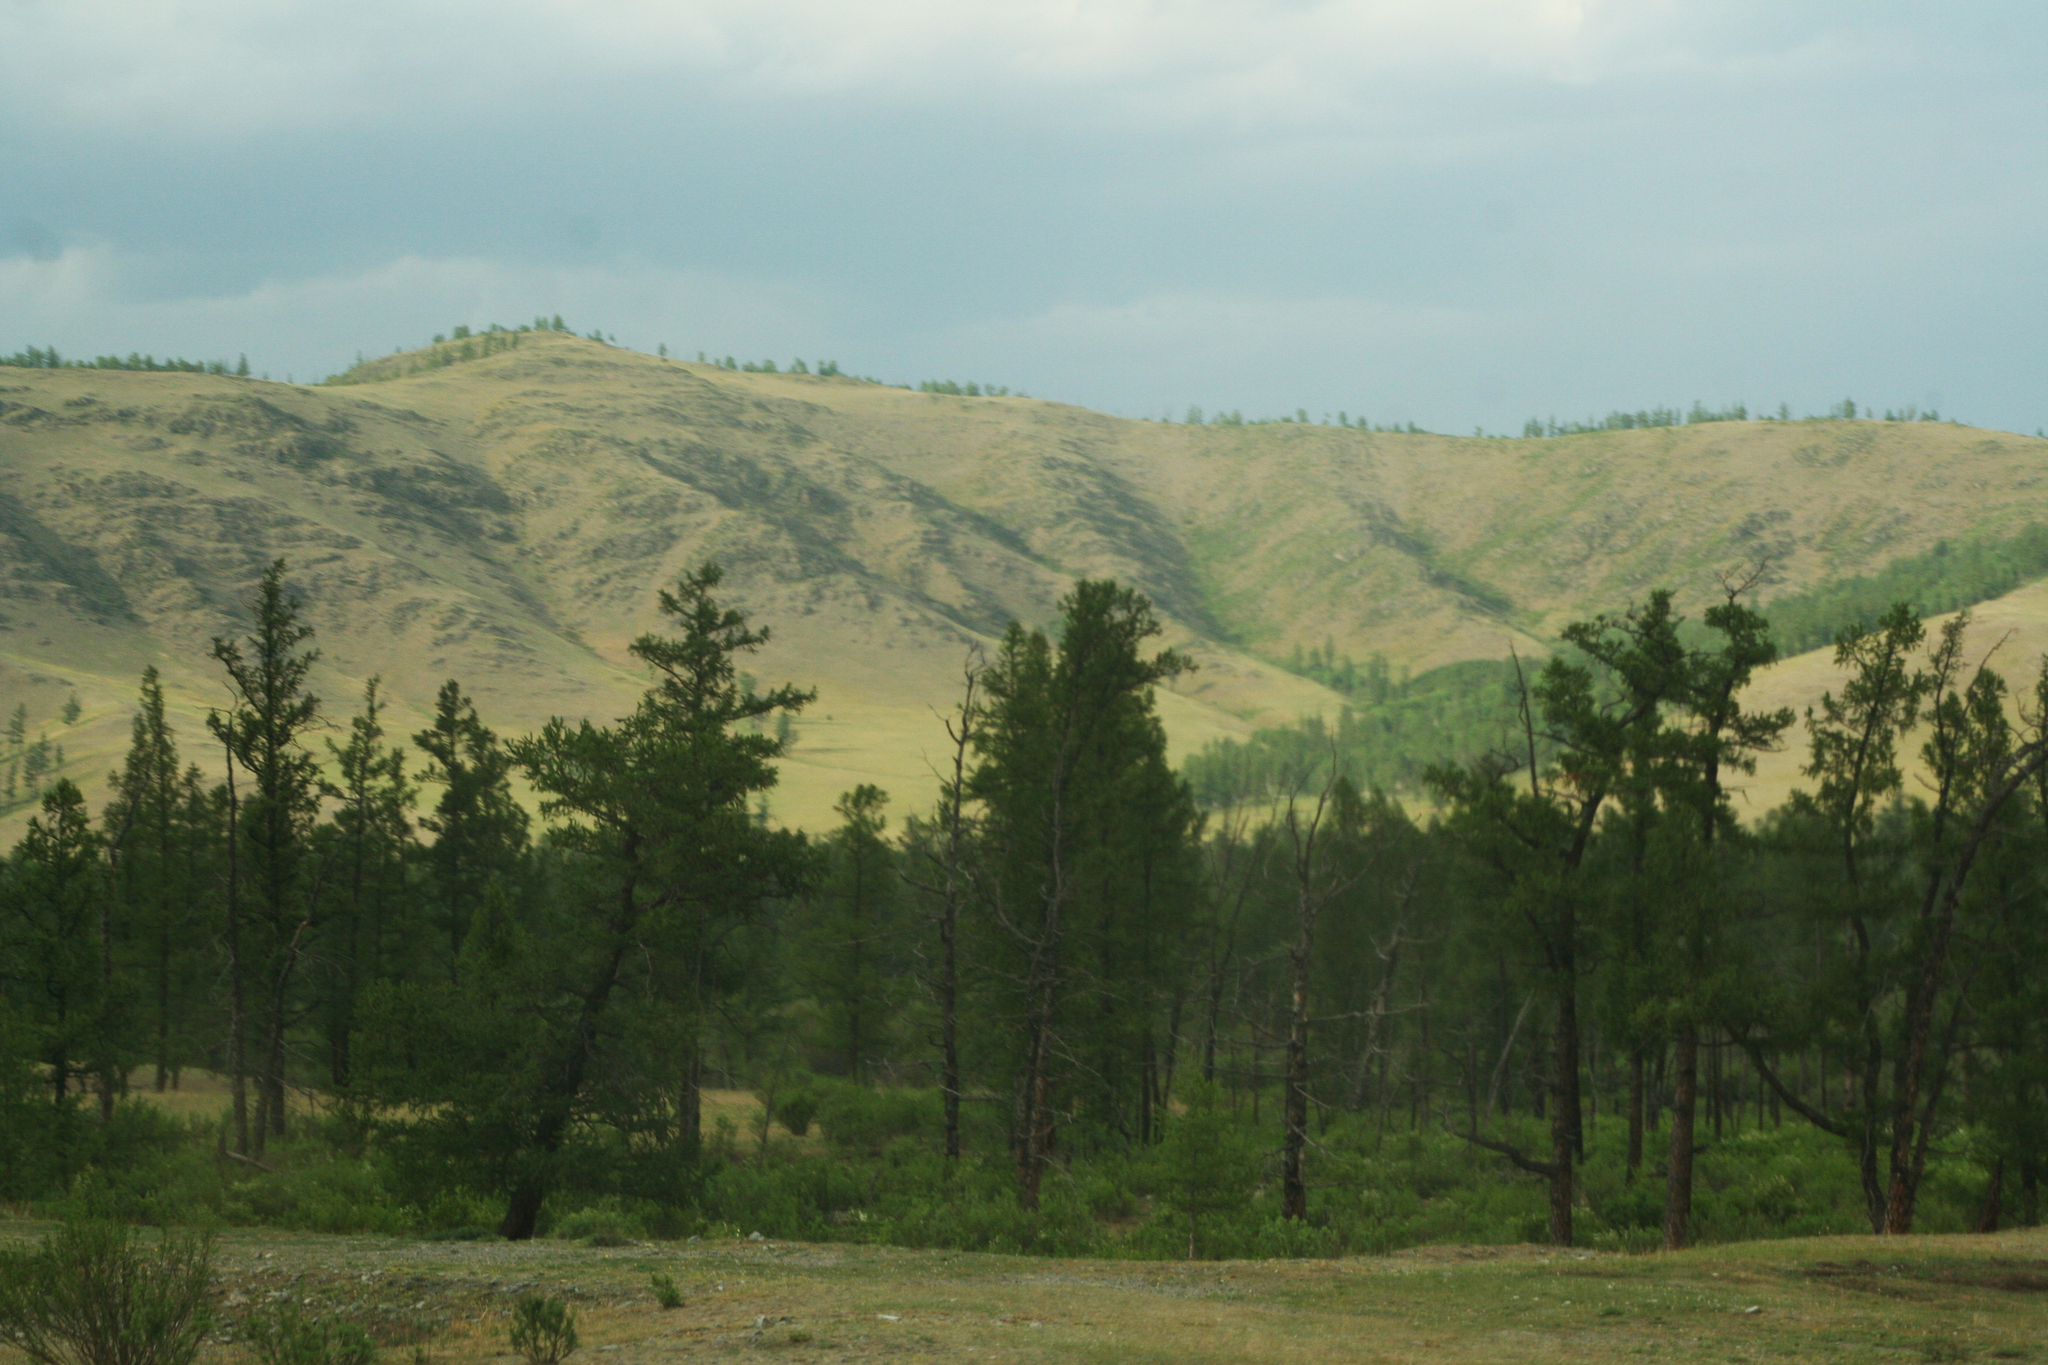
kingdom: Plantae
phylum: Tracheophyta
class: Pinopsida
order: Pinales
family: Pinaceae
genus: Larix
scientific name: Larix sibirica
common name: Siberian larch
